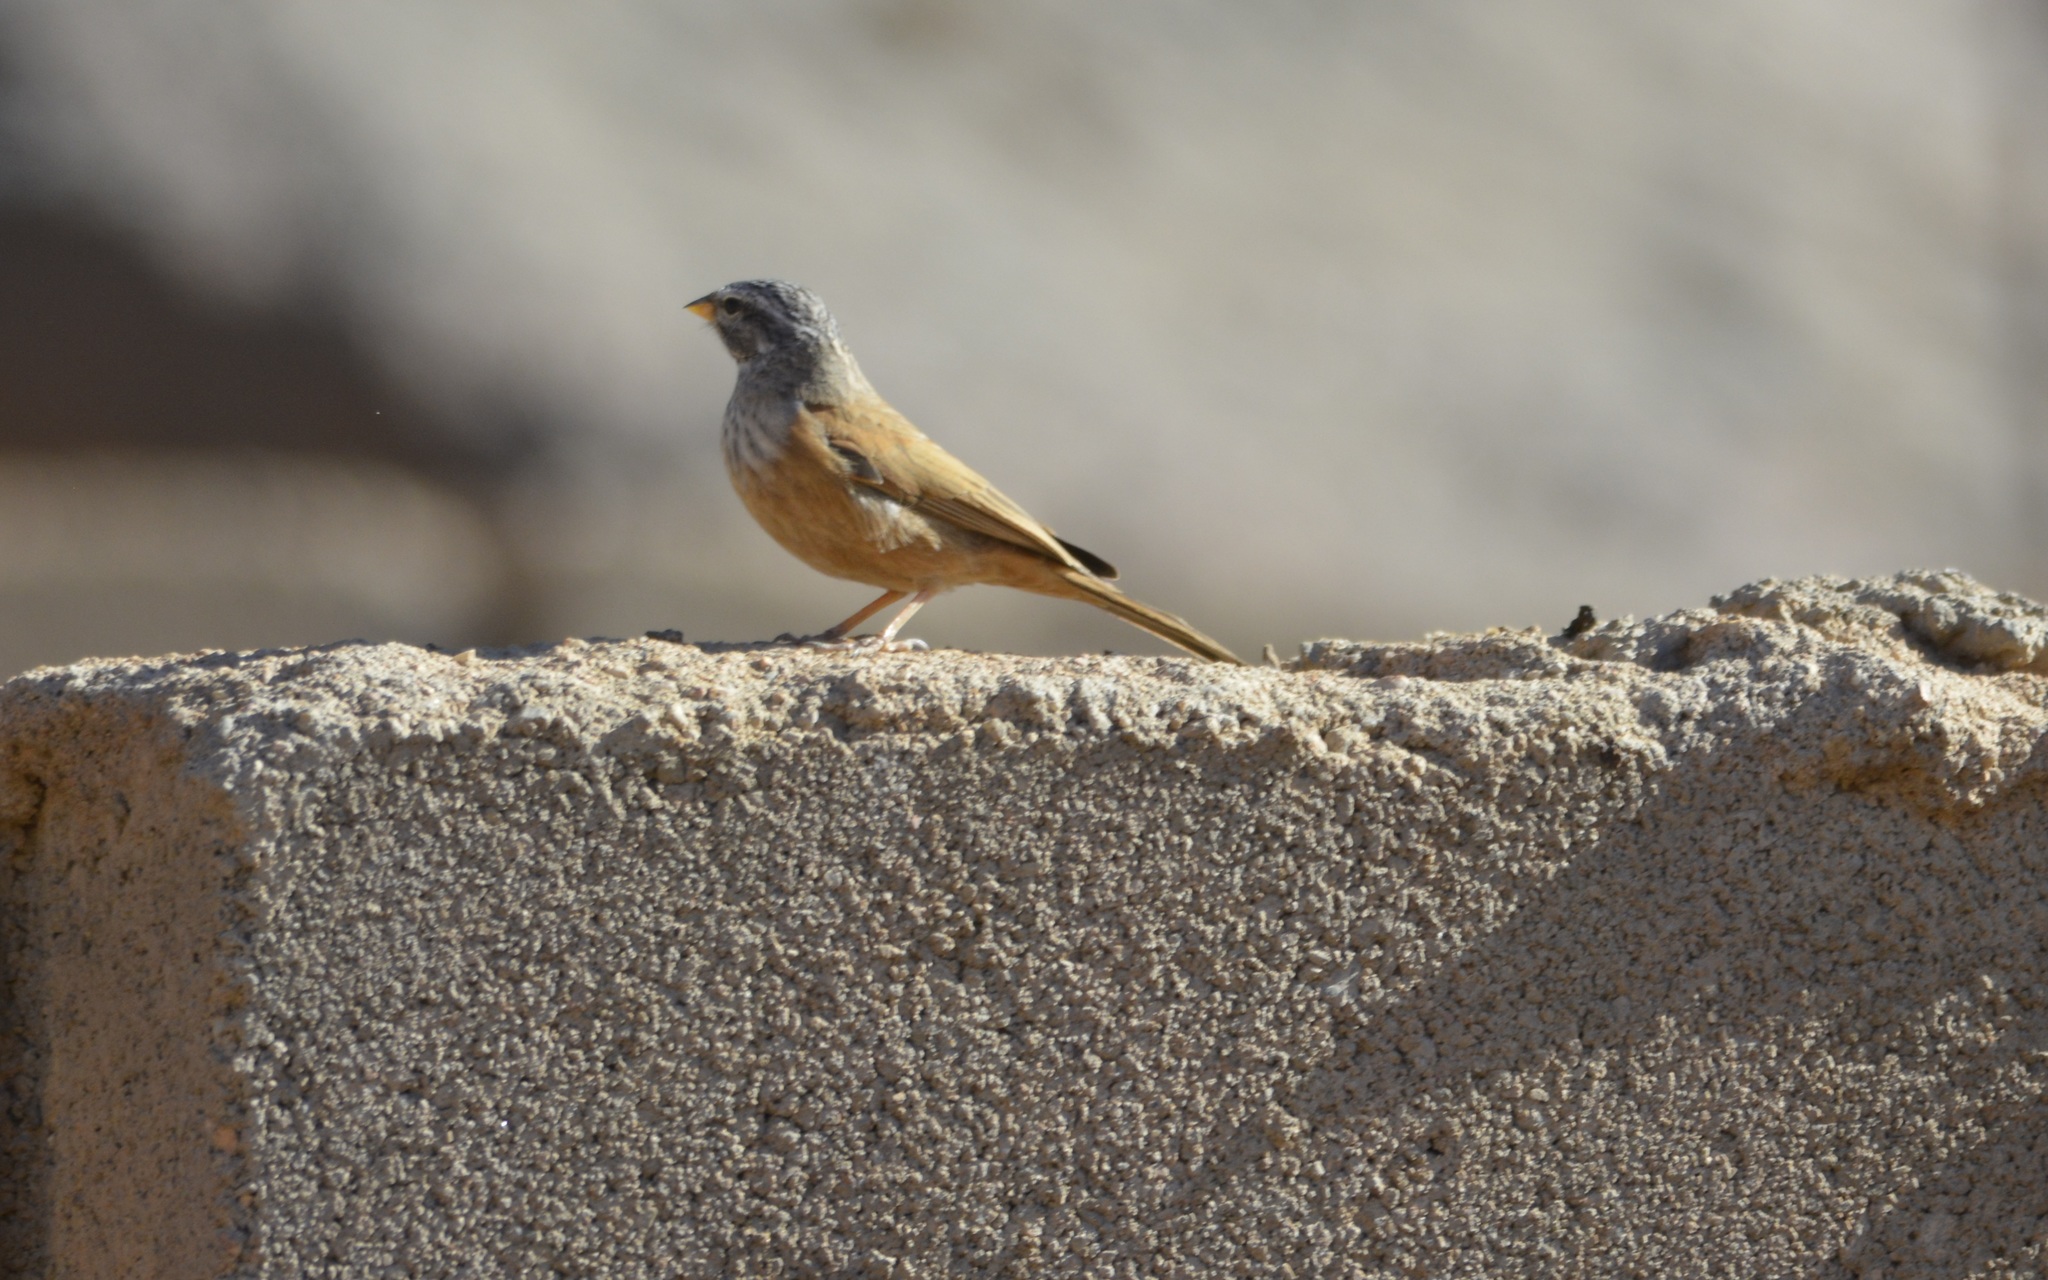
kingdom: Animalia
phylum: Chordata
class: Aves
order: Passeriformes
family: Emberizidae
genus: Emberiza
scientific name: Emberiza sahari
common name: House bunting
